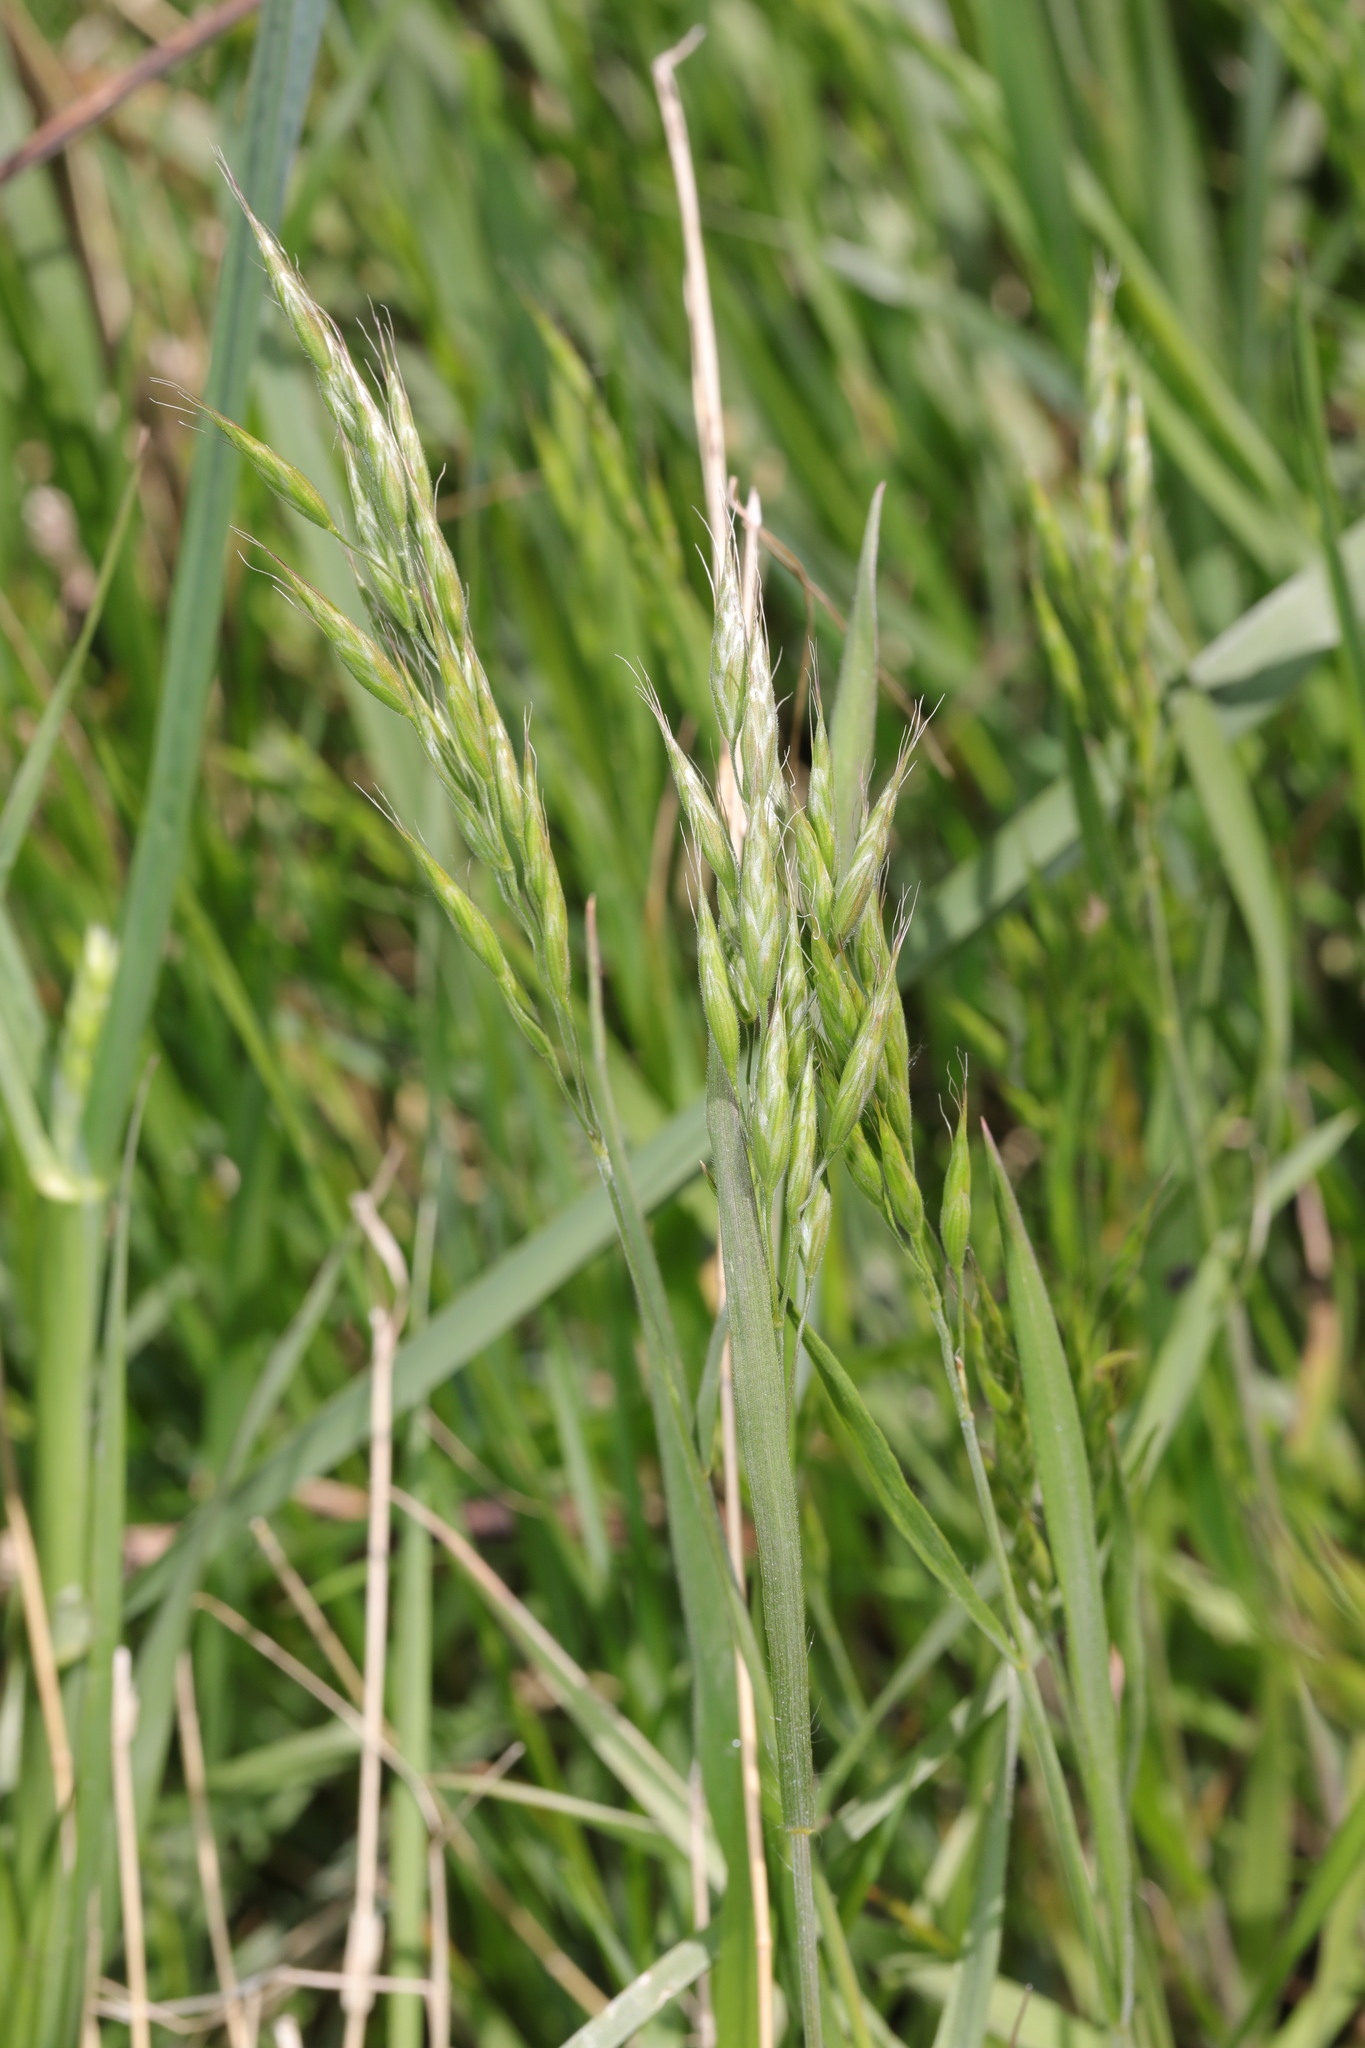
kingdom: Plantae
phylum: Tracheophyta
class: Liliopsida
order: Poales
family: Poaceae
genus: Bromus
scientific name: Bromus hordeaceus
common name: Soft brome
